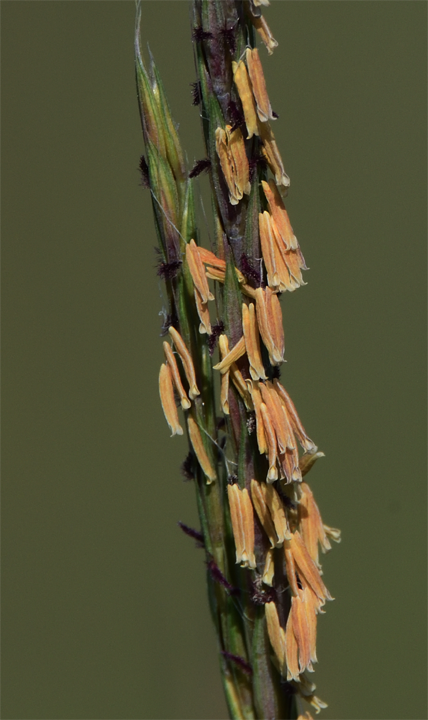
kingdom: Plantae
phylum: Tracheophyta
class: Liliopsida
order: Poales
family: Poaceae
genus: Andropogon
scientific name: Andropogon gerardi
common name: Big bluestem
